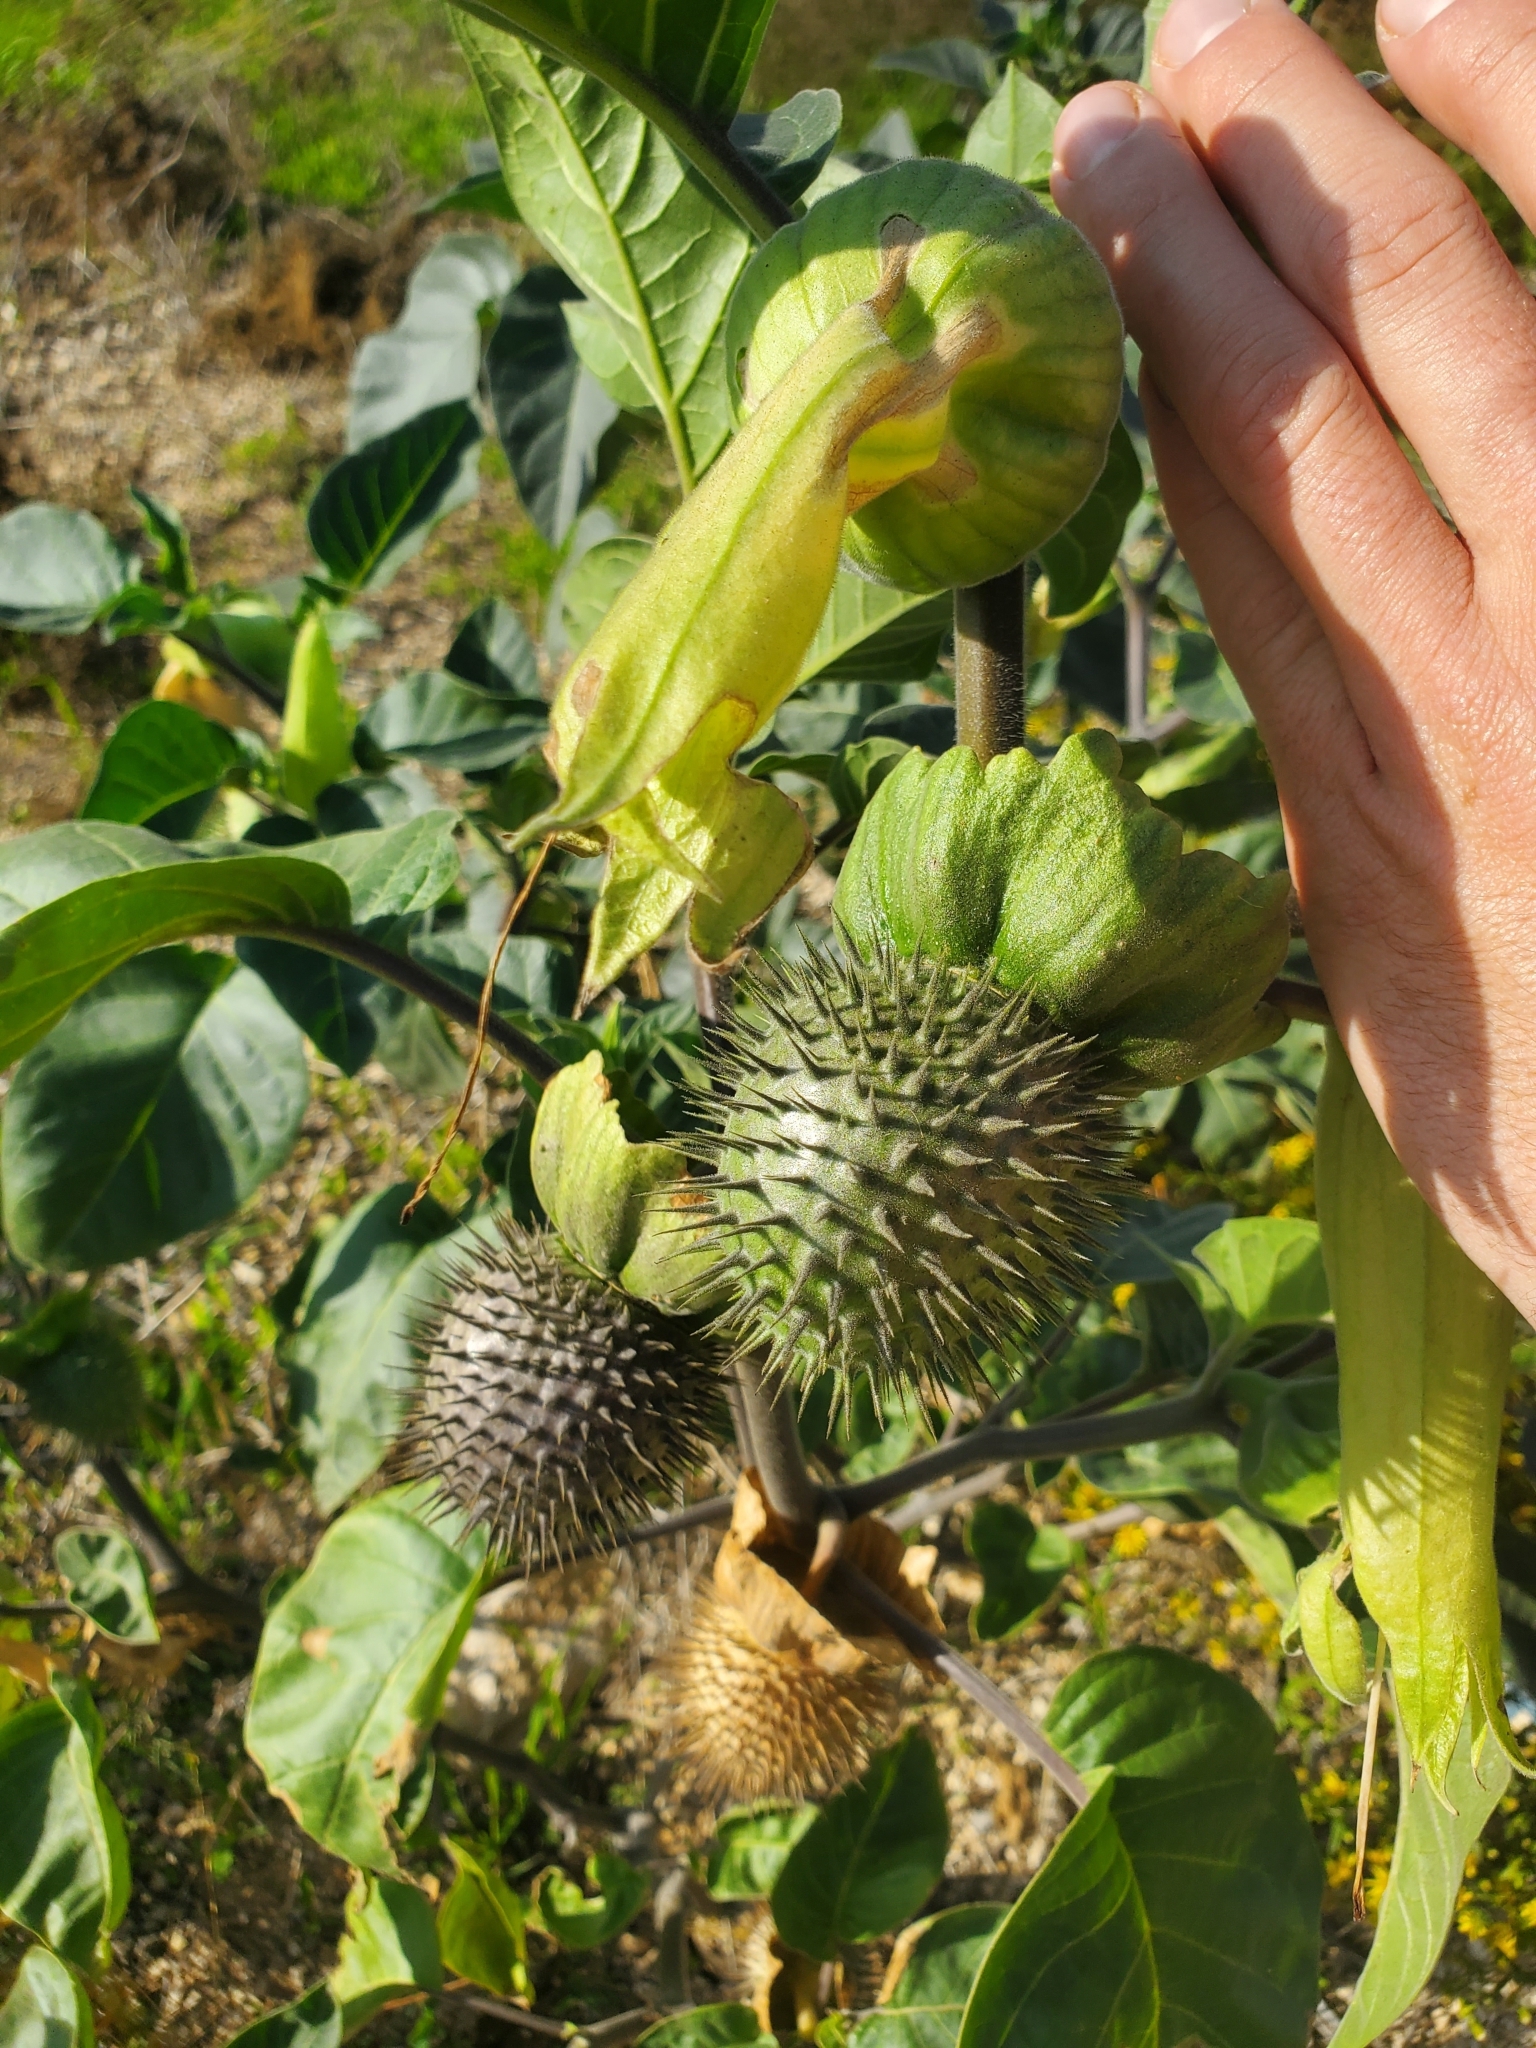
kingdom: Plantae
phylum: Tracheophyta
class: Magnoliopsida
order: Solanales
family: Solanaceae
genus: Datura
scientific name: Datura innoxia
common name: Downy thorn-apple
